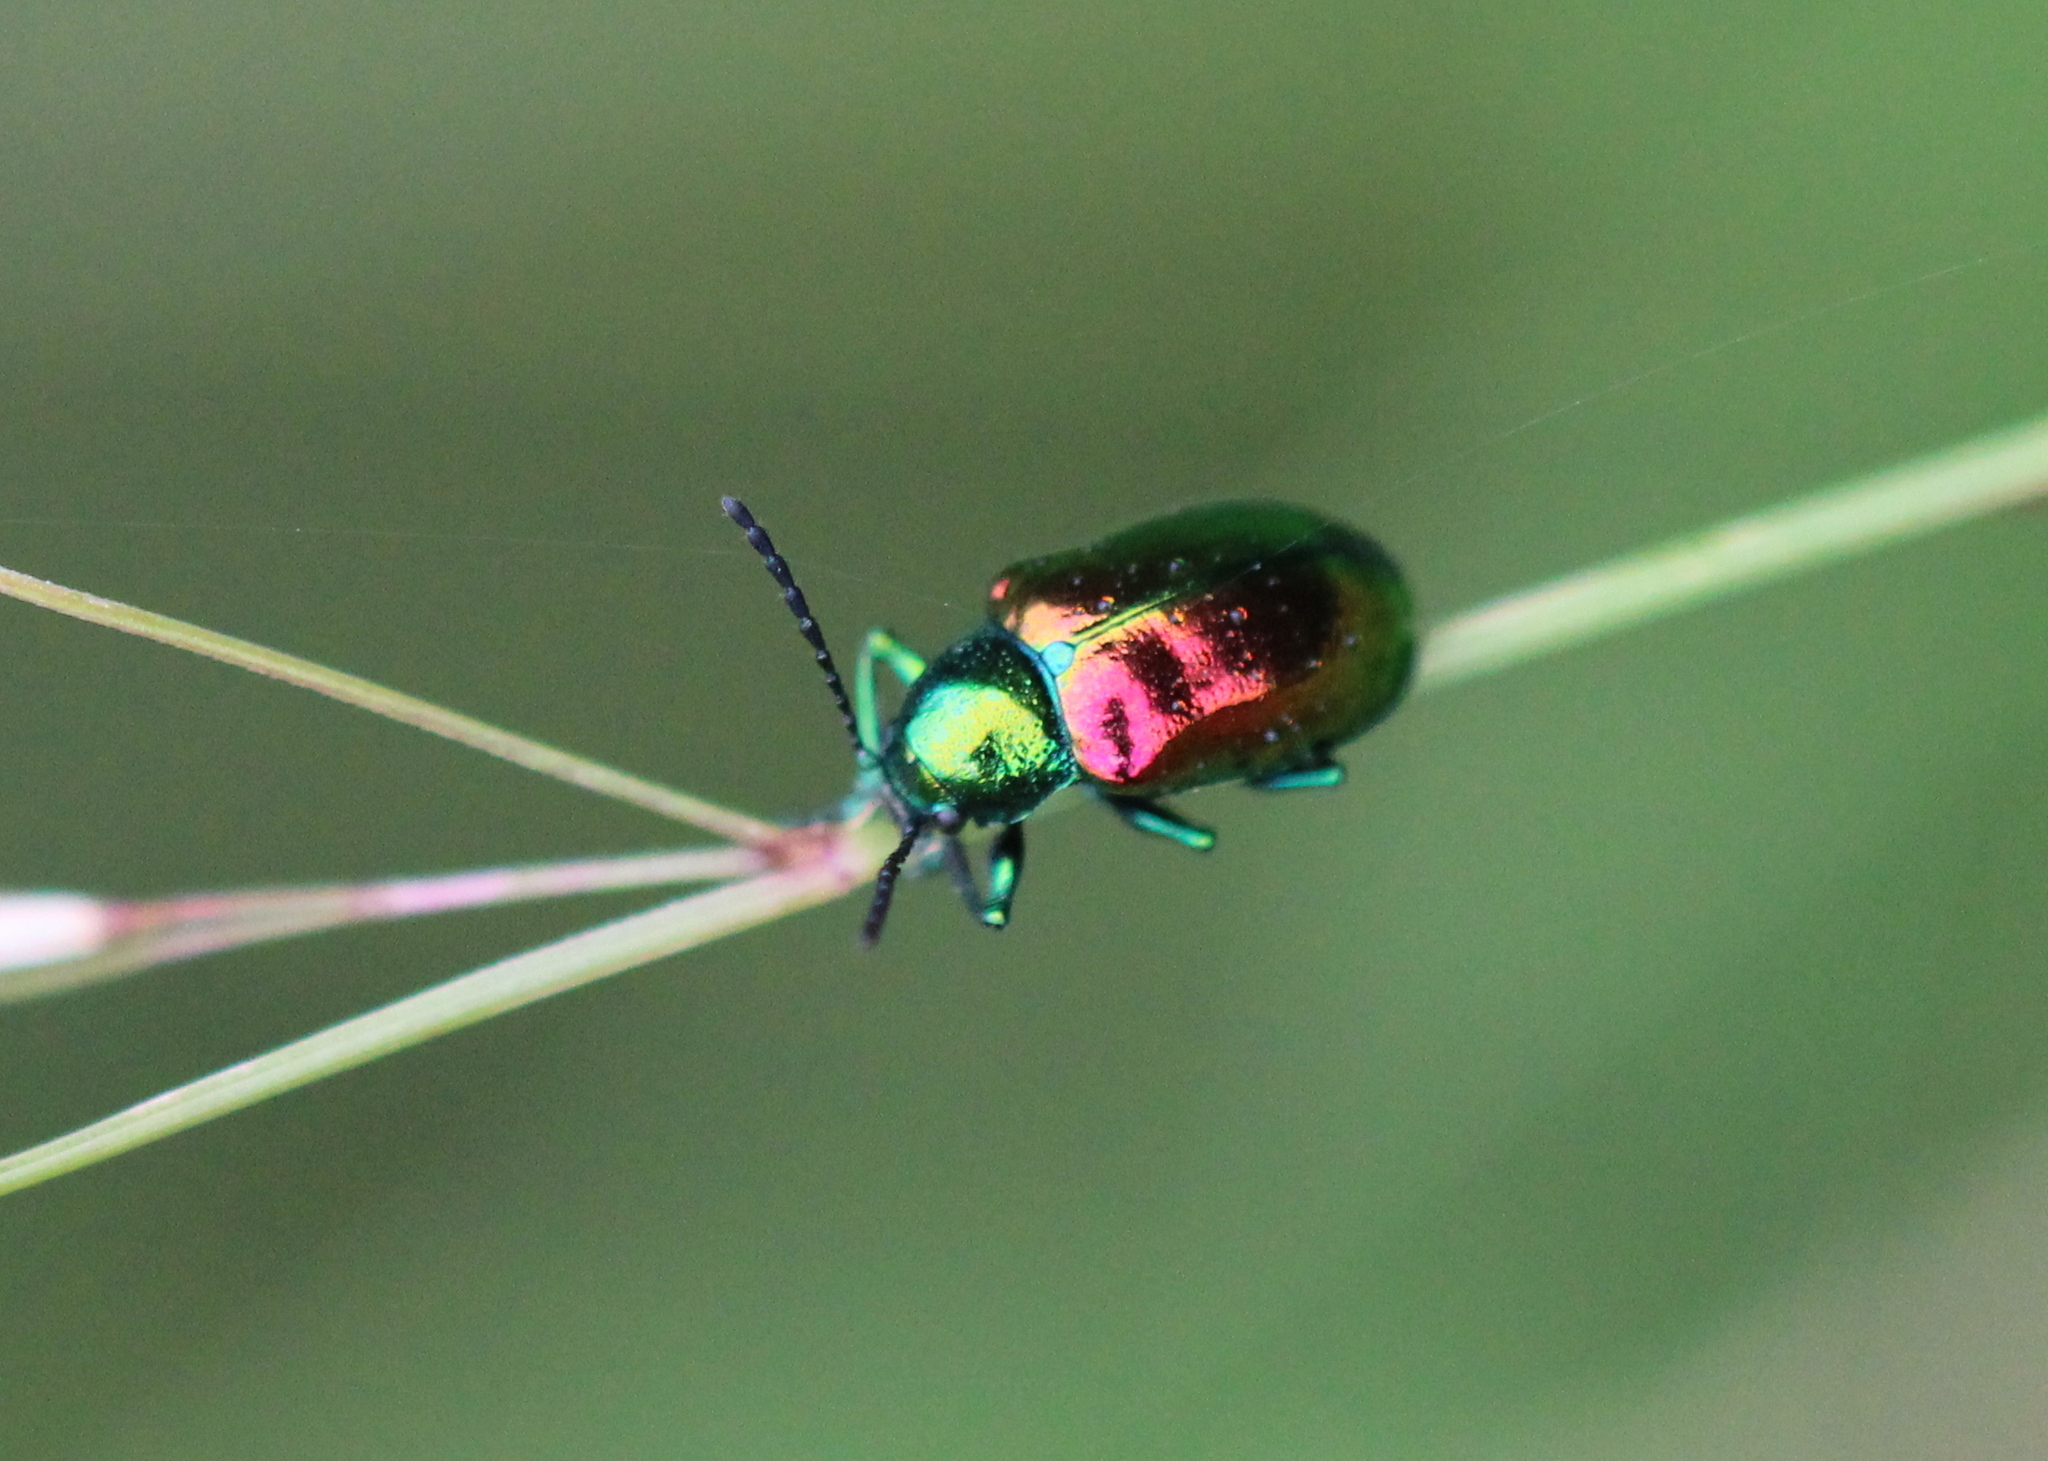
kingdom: Animalia
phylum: Arthropoda
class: Insecta
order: Coleoptera
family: Chrysomelidae
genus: Chrysochus
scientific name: Chrysochus auratus
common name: Dogbane leaf beetle
